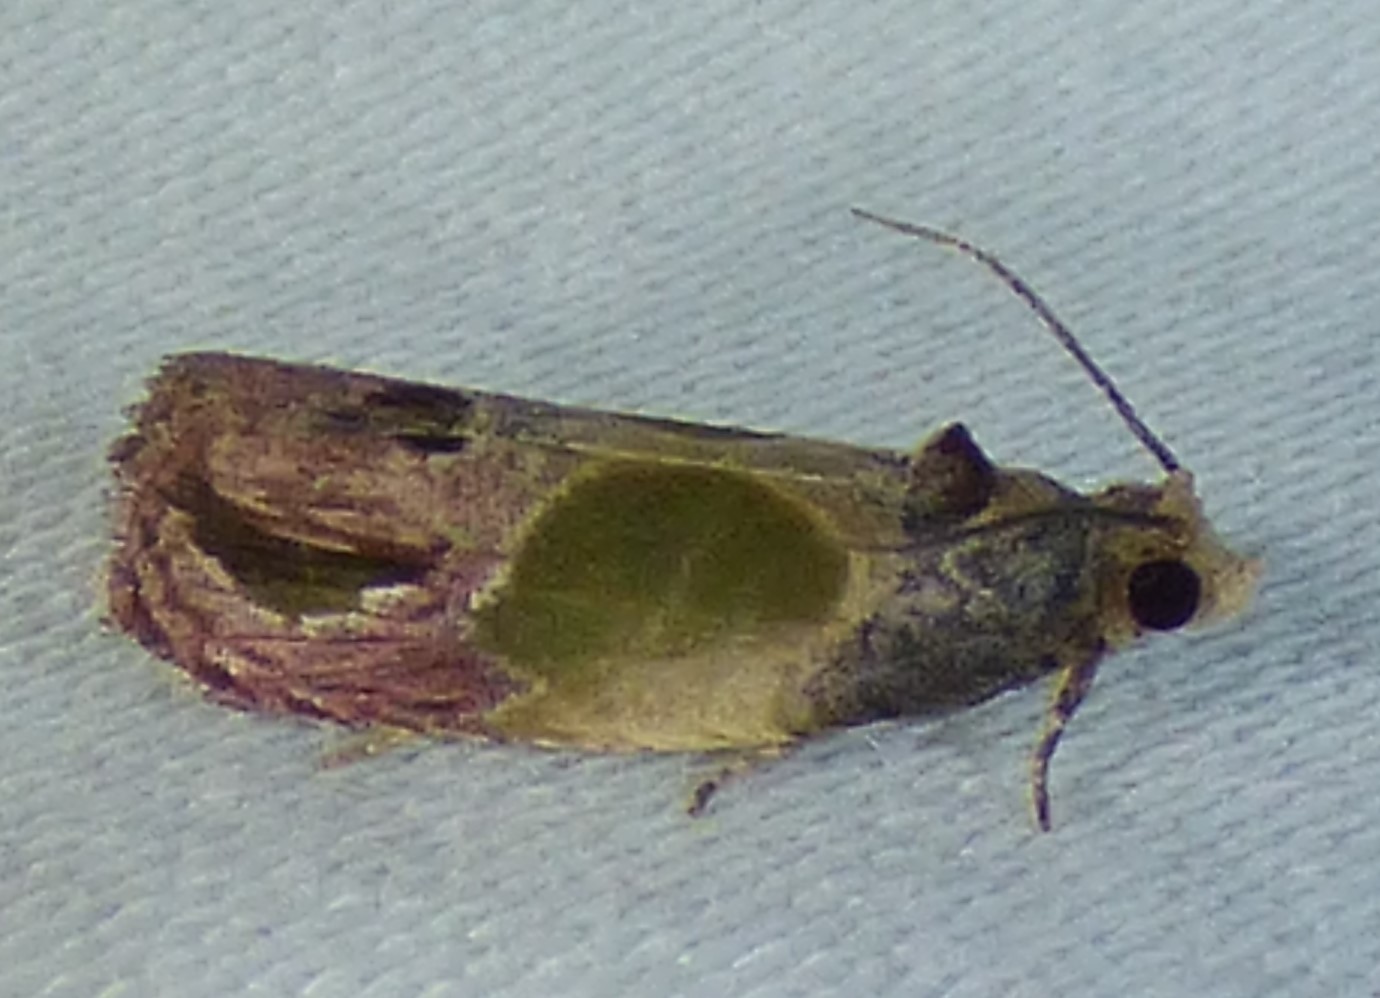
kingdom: Animalia
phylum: Arthropoda
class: Insecta
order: Lepidoptera
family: Tortricidae
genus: Eumarozia
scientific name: Eumarozia malachitana
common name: Sculptured moth
